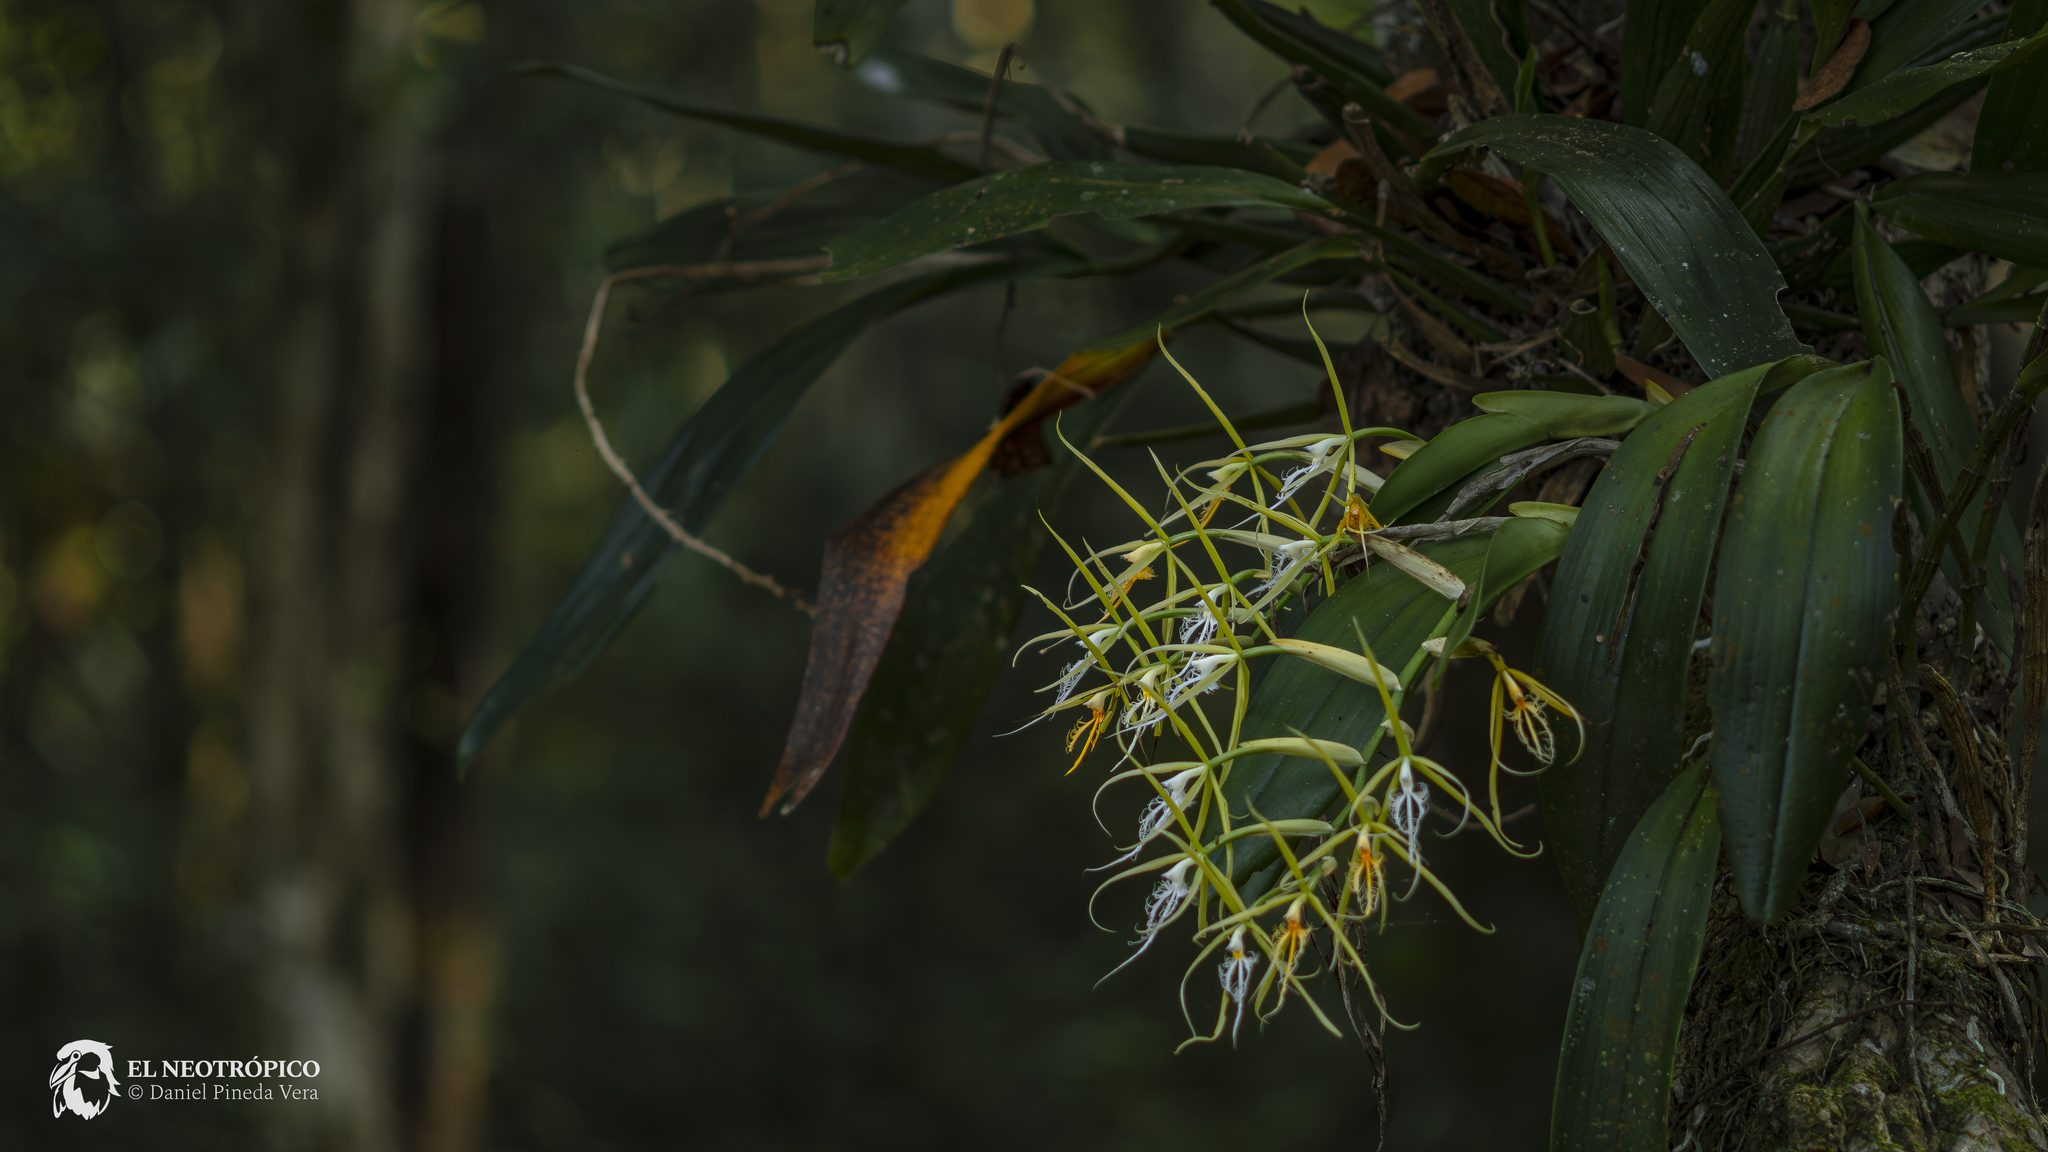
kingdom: Plantae
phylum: Tracheophyta
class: Liliopsida
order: Asparagales
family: Orchidaceae
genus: Epidendrum
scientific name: Epidendrum ciliare
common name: Eyelash orchid
